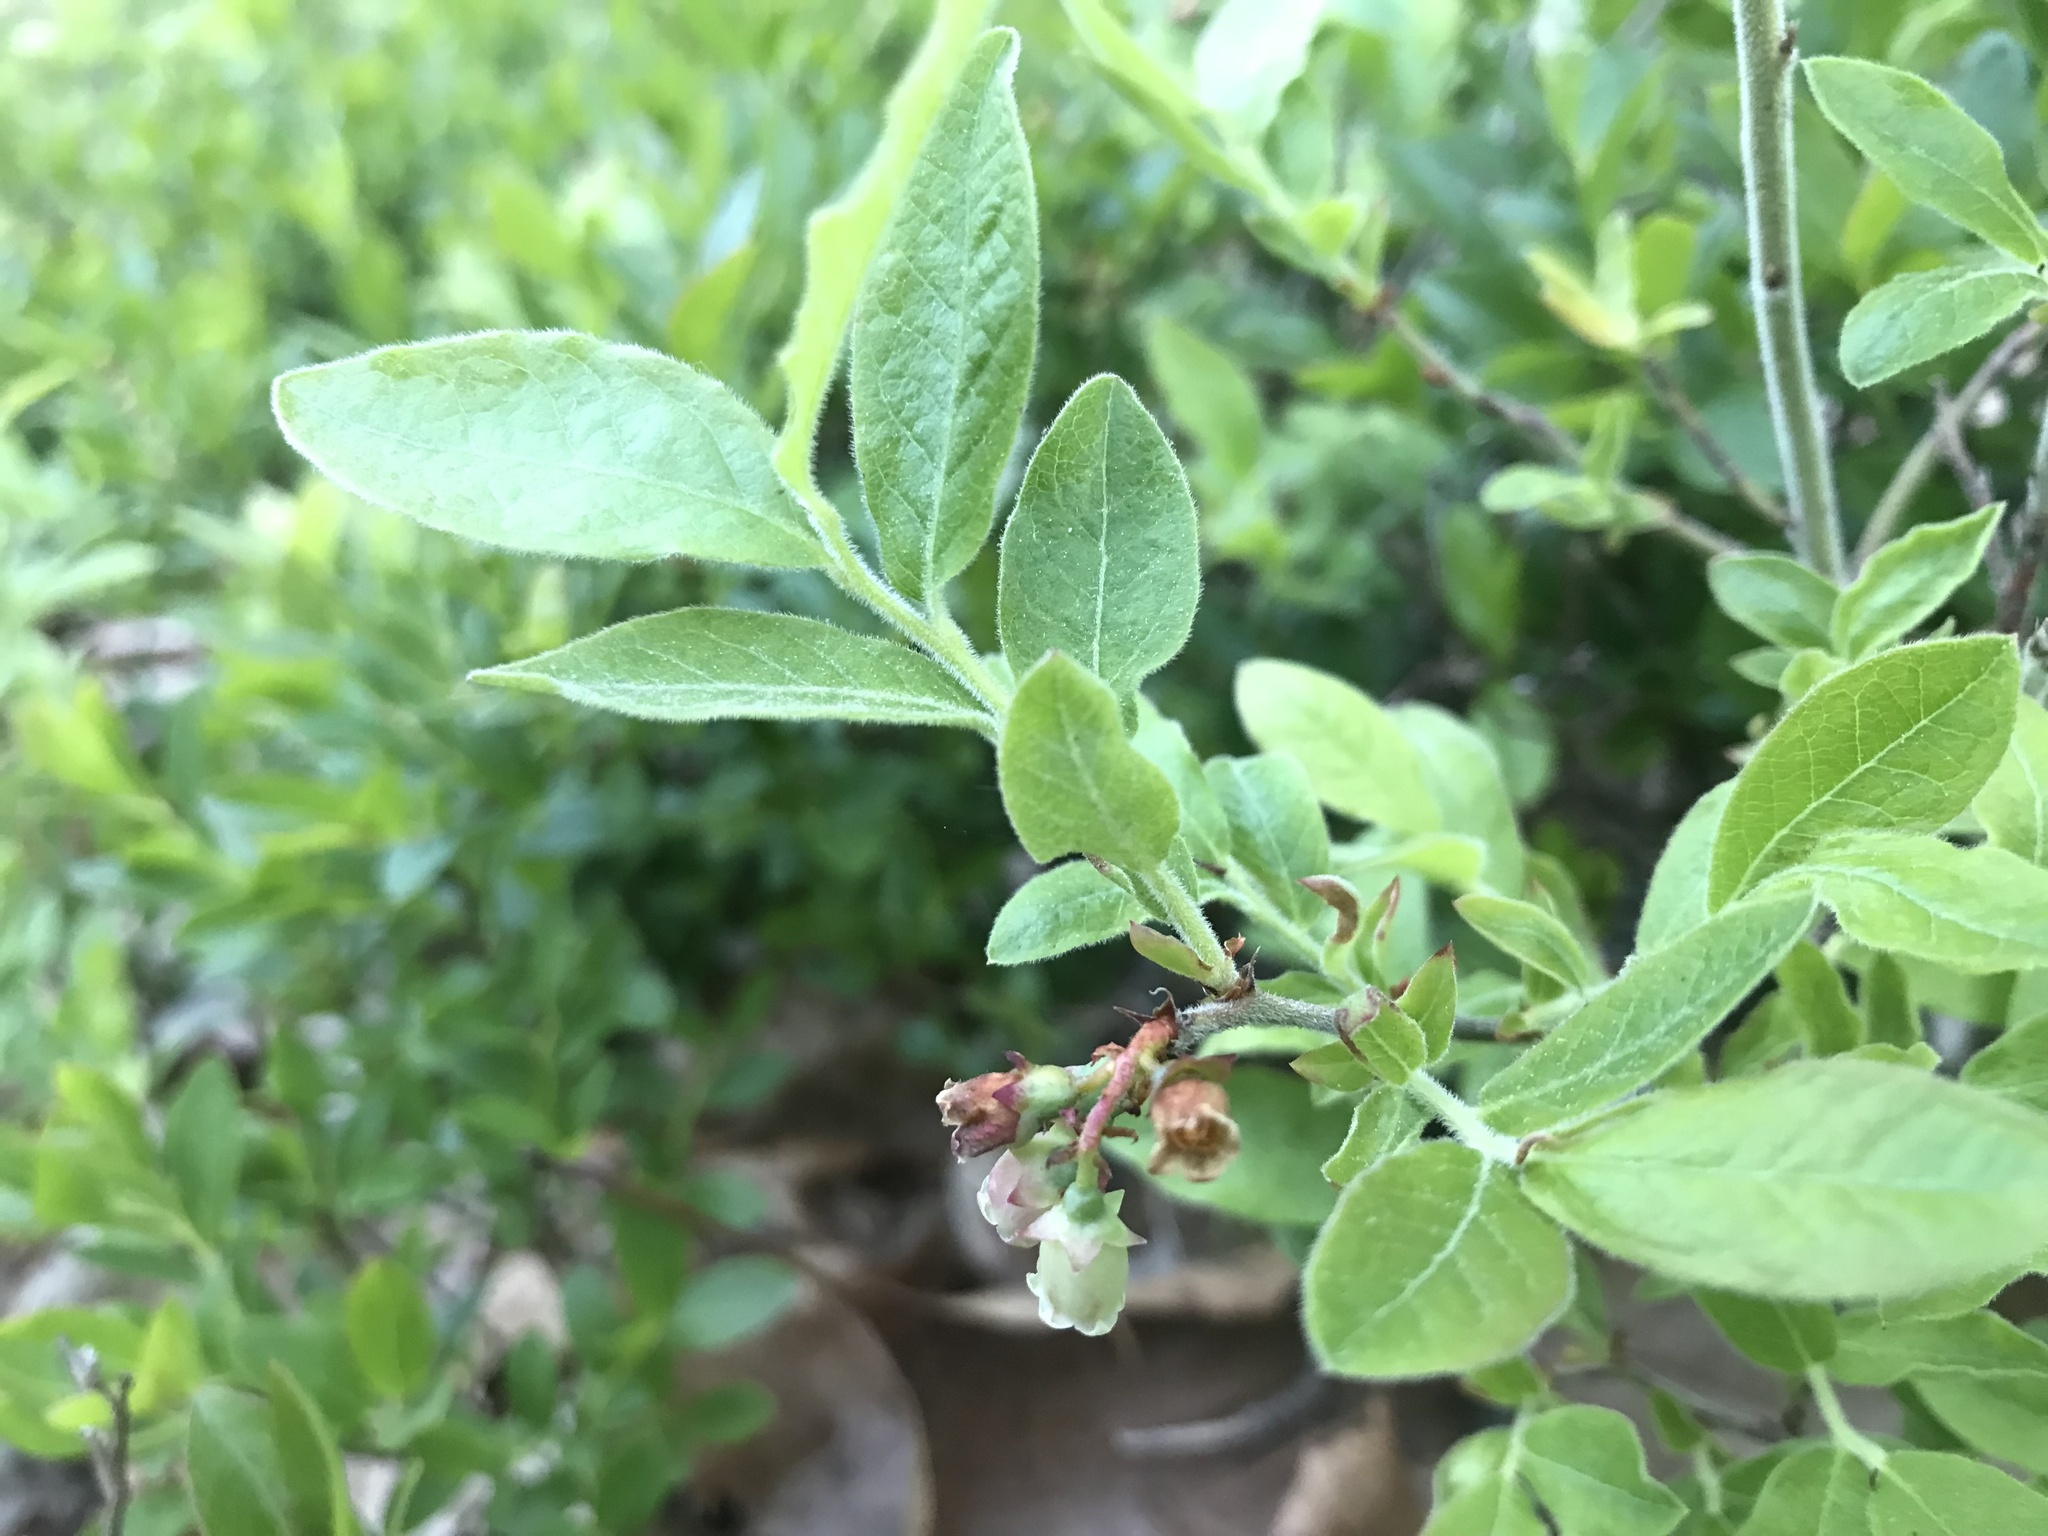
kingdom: Plantae
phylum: Tracheophyta
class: Magnoliopsida
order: Ericales
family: Ericaceae
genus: Vaccinium
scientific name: Vaccinium myrtilloides
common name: Canada blueberry
